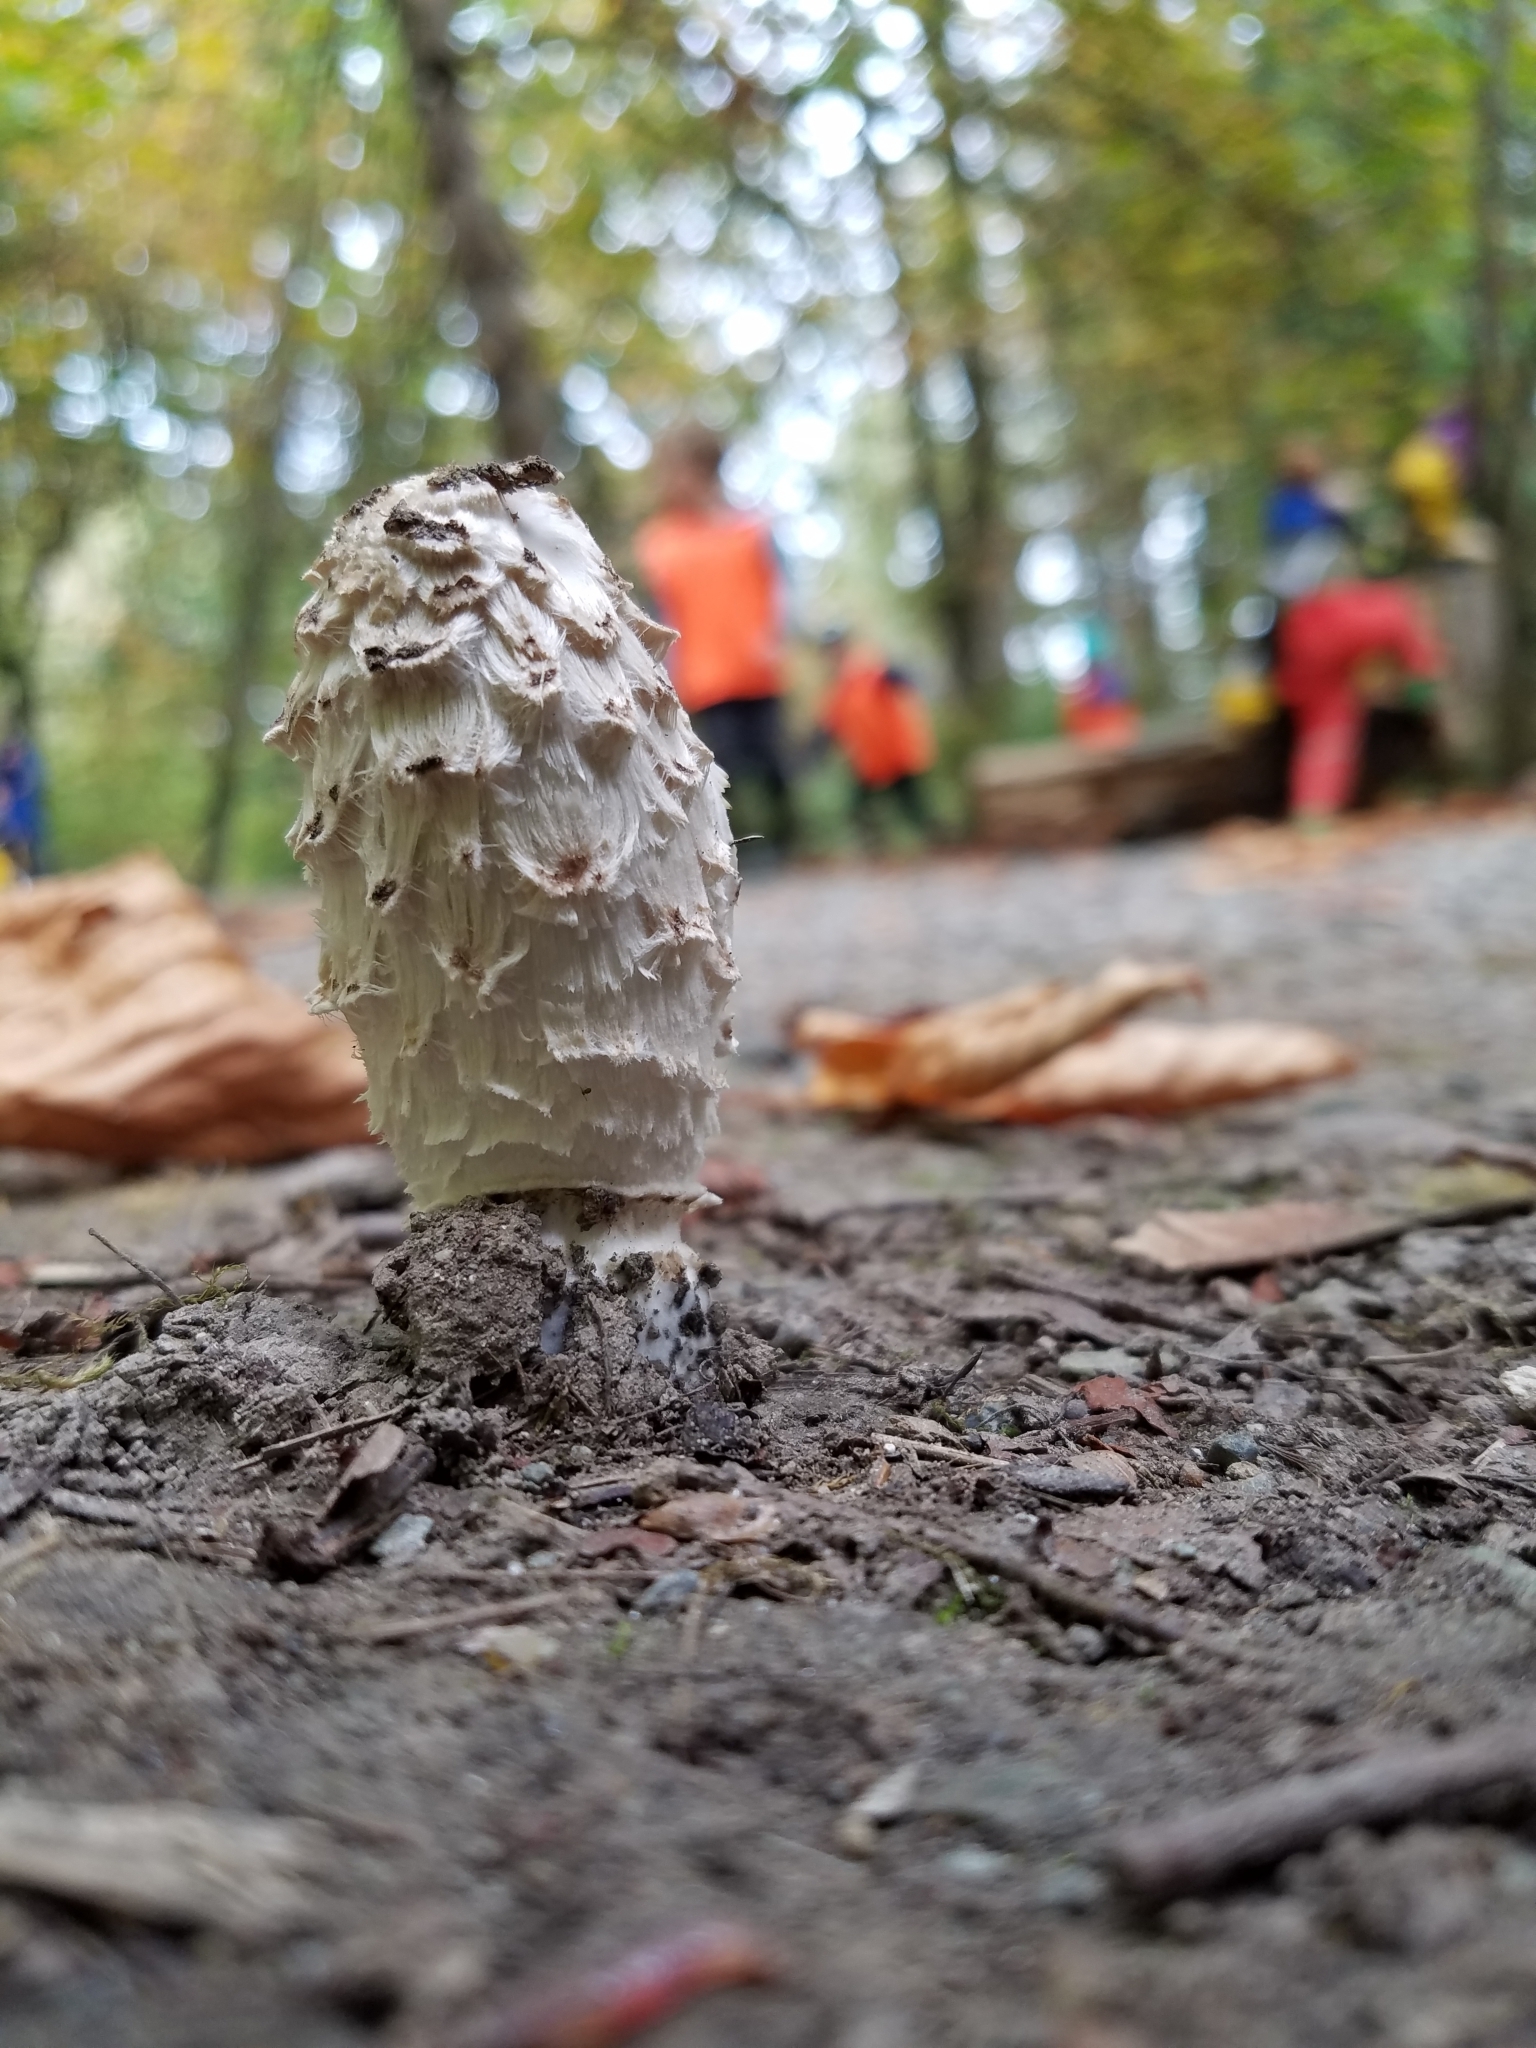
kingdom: Fungi
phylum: Basidiomycota
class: Agaricomycetes
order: Agaricales
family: Agaricaceae
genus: Coprinus
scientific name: Coprinus comatus
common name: Lawyer's wig
